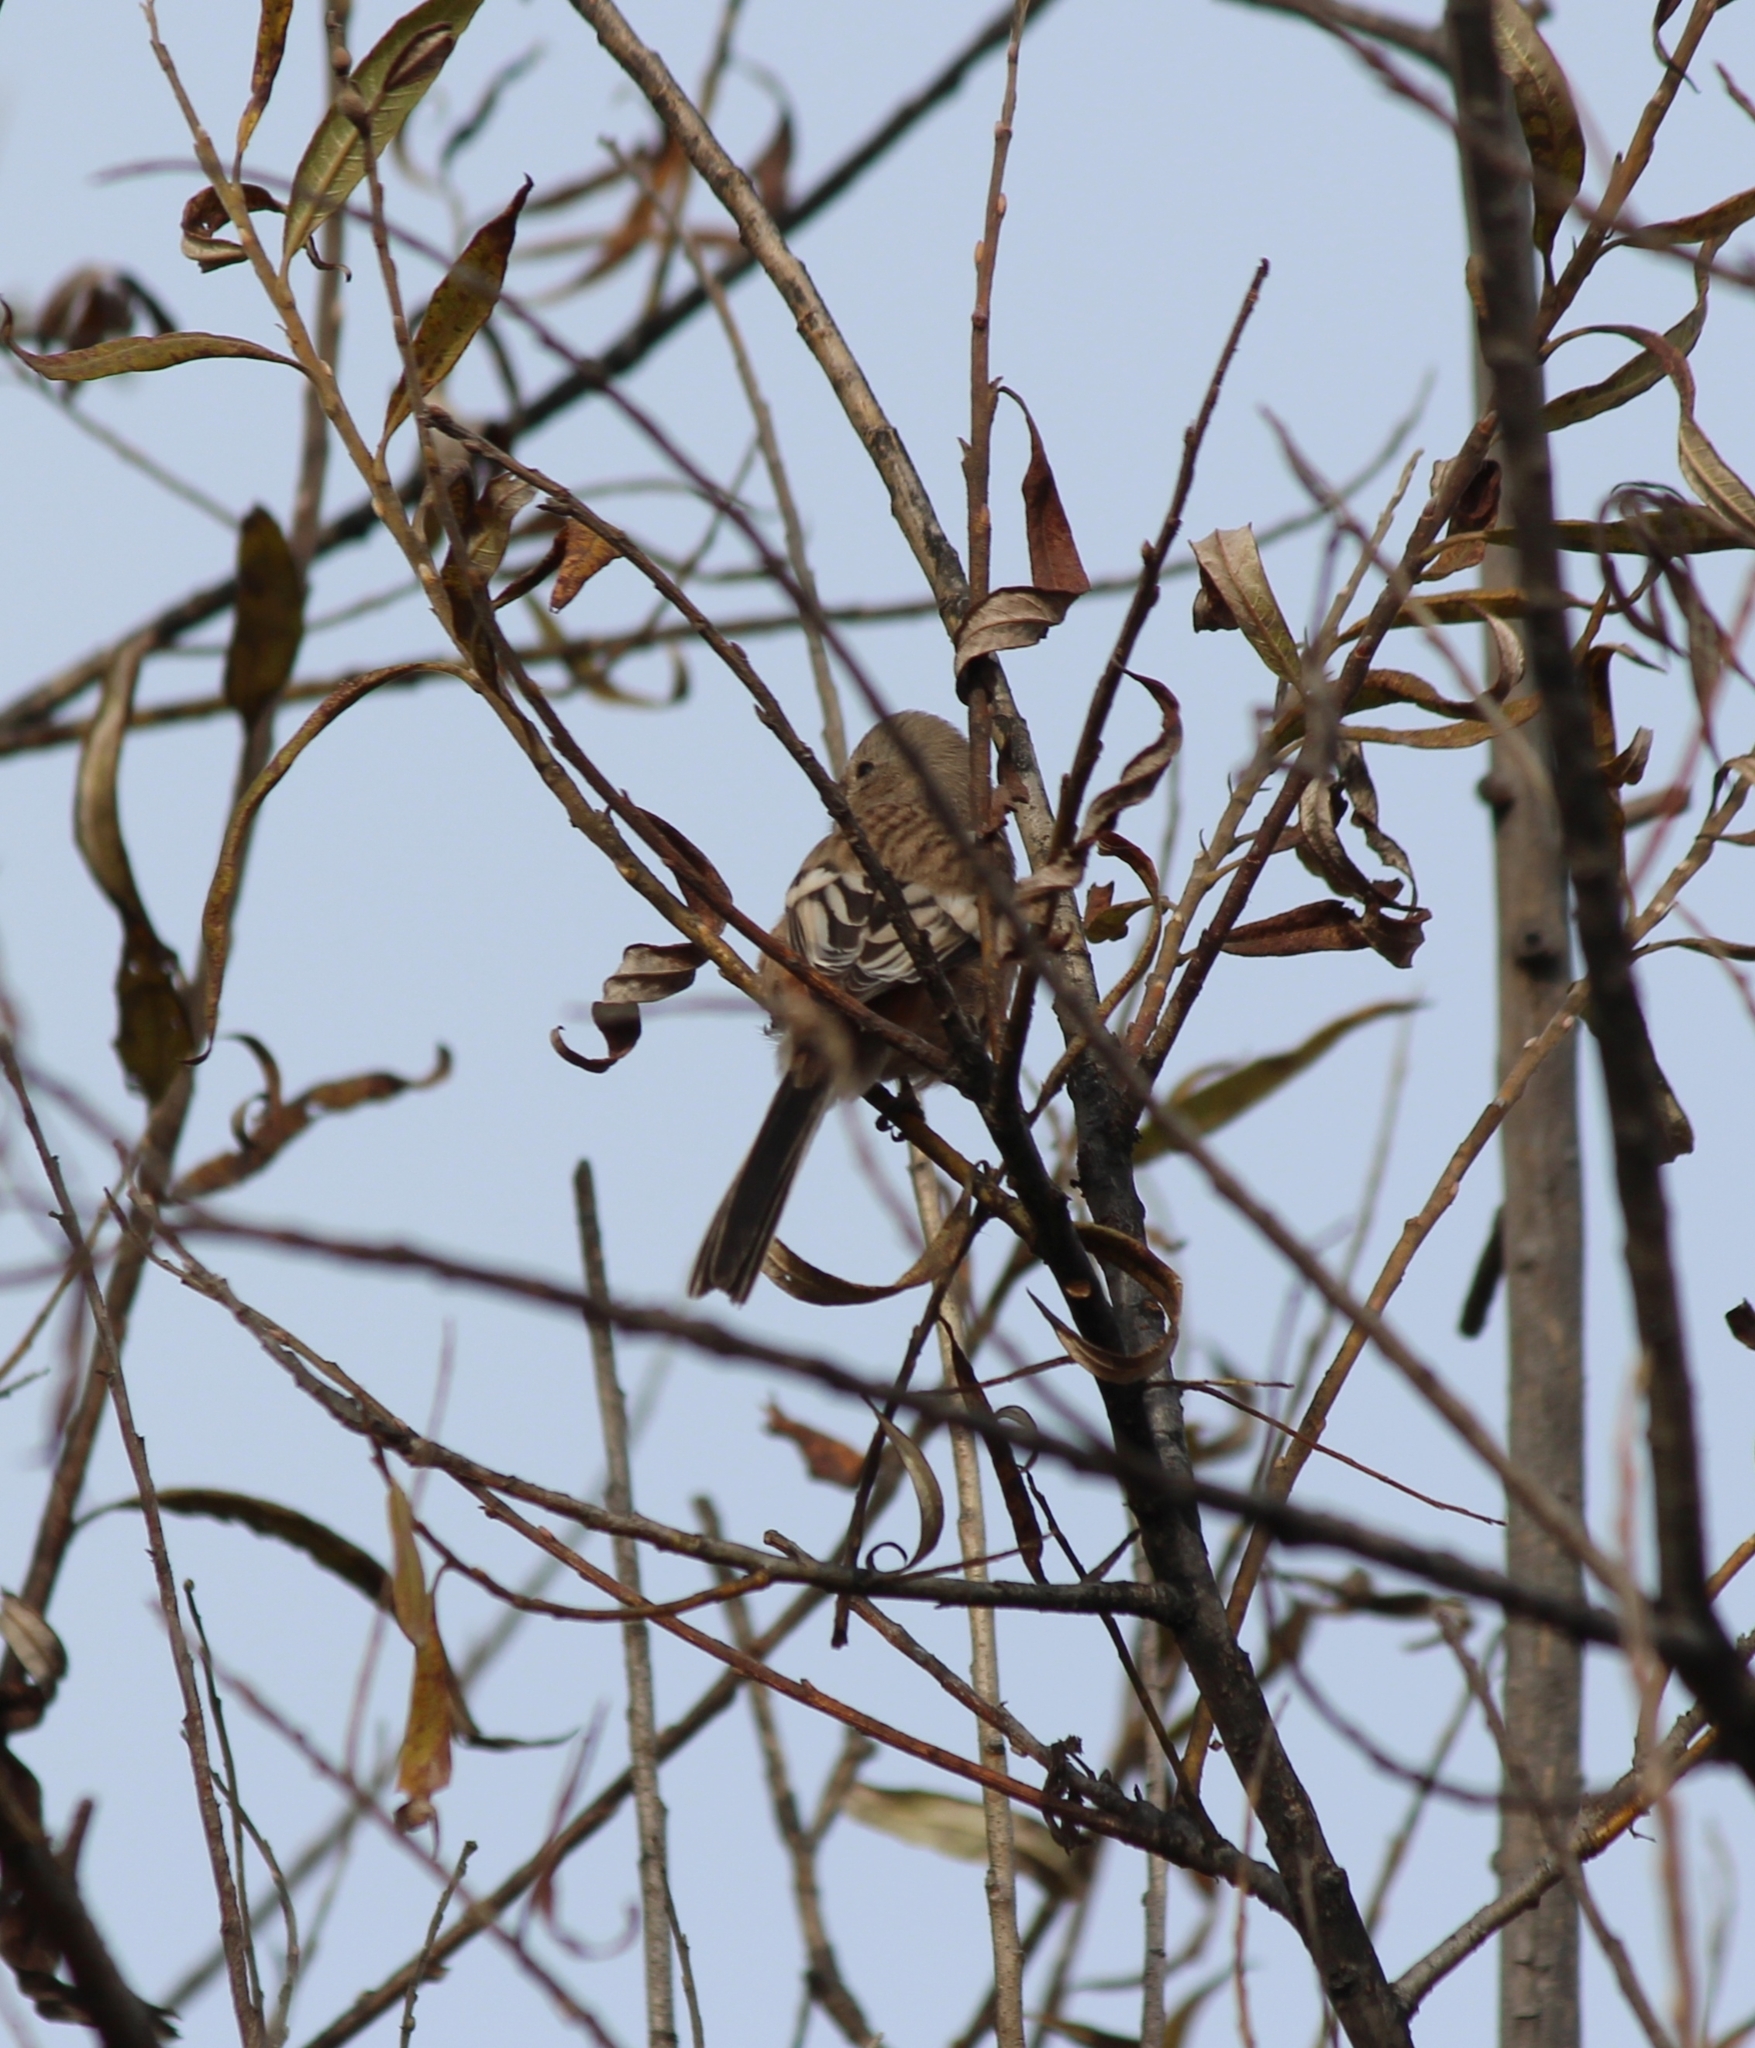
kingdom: Animalia
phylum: Chordata
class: Aves
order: Passeriformes
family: Fringillidae
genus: Carpodacus
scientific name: Carpodacus sibiricus
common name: Long-tailed rosefinch
